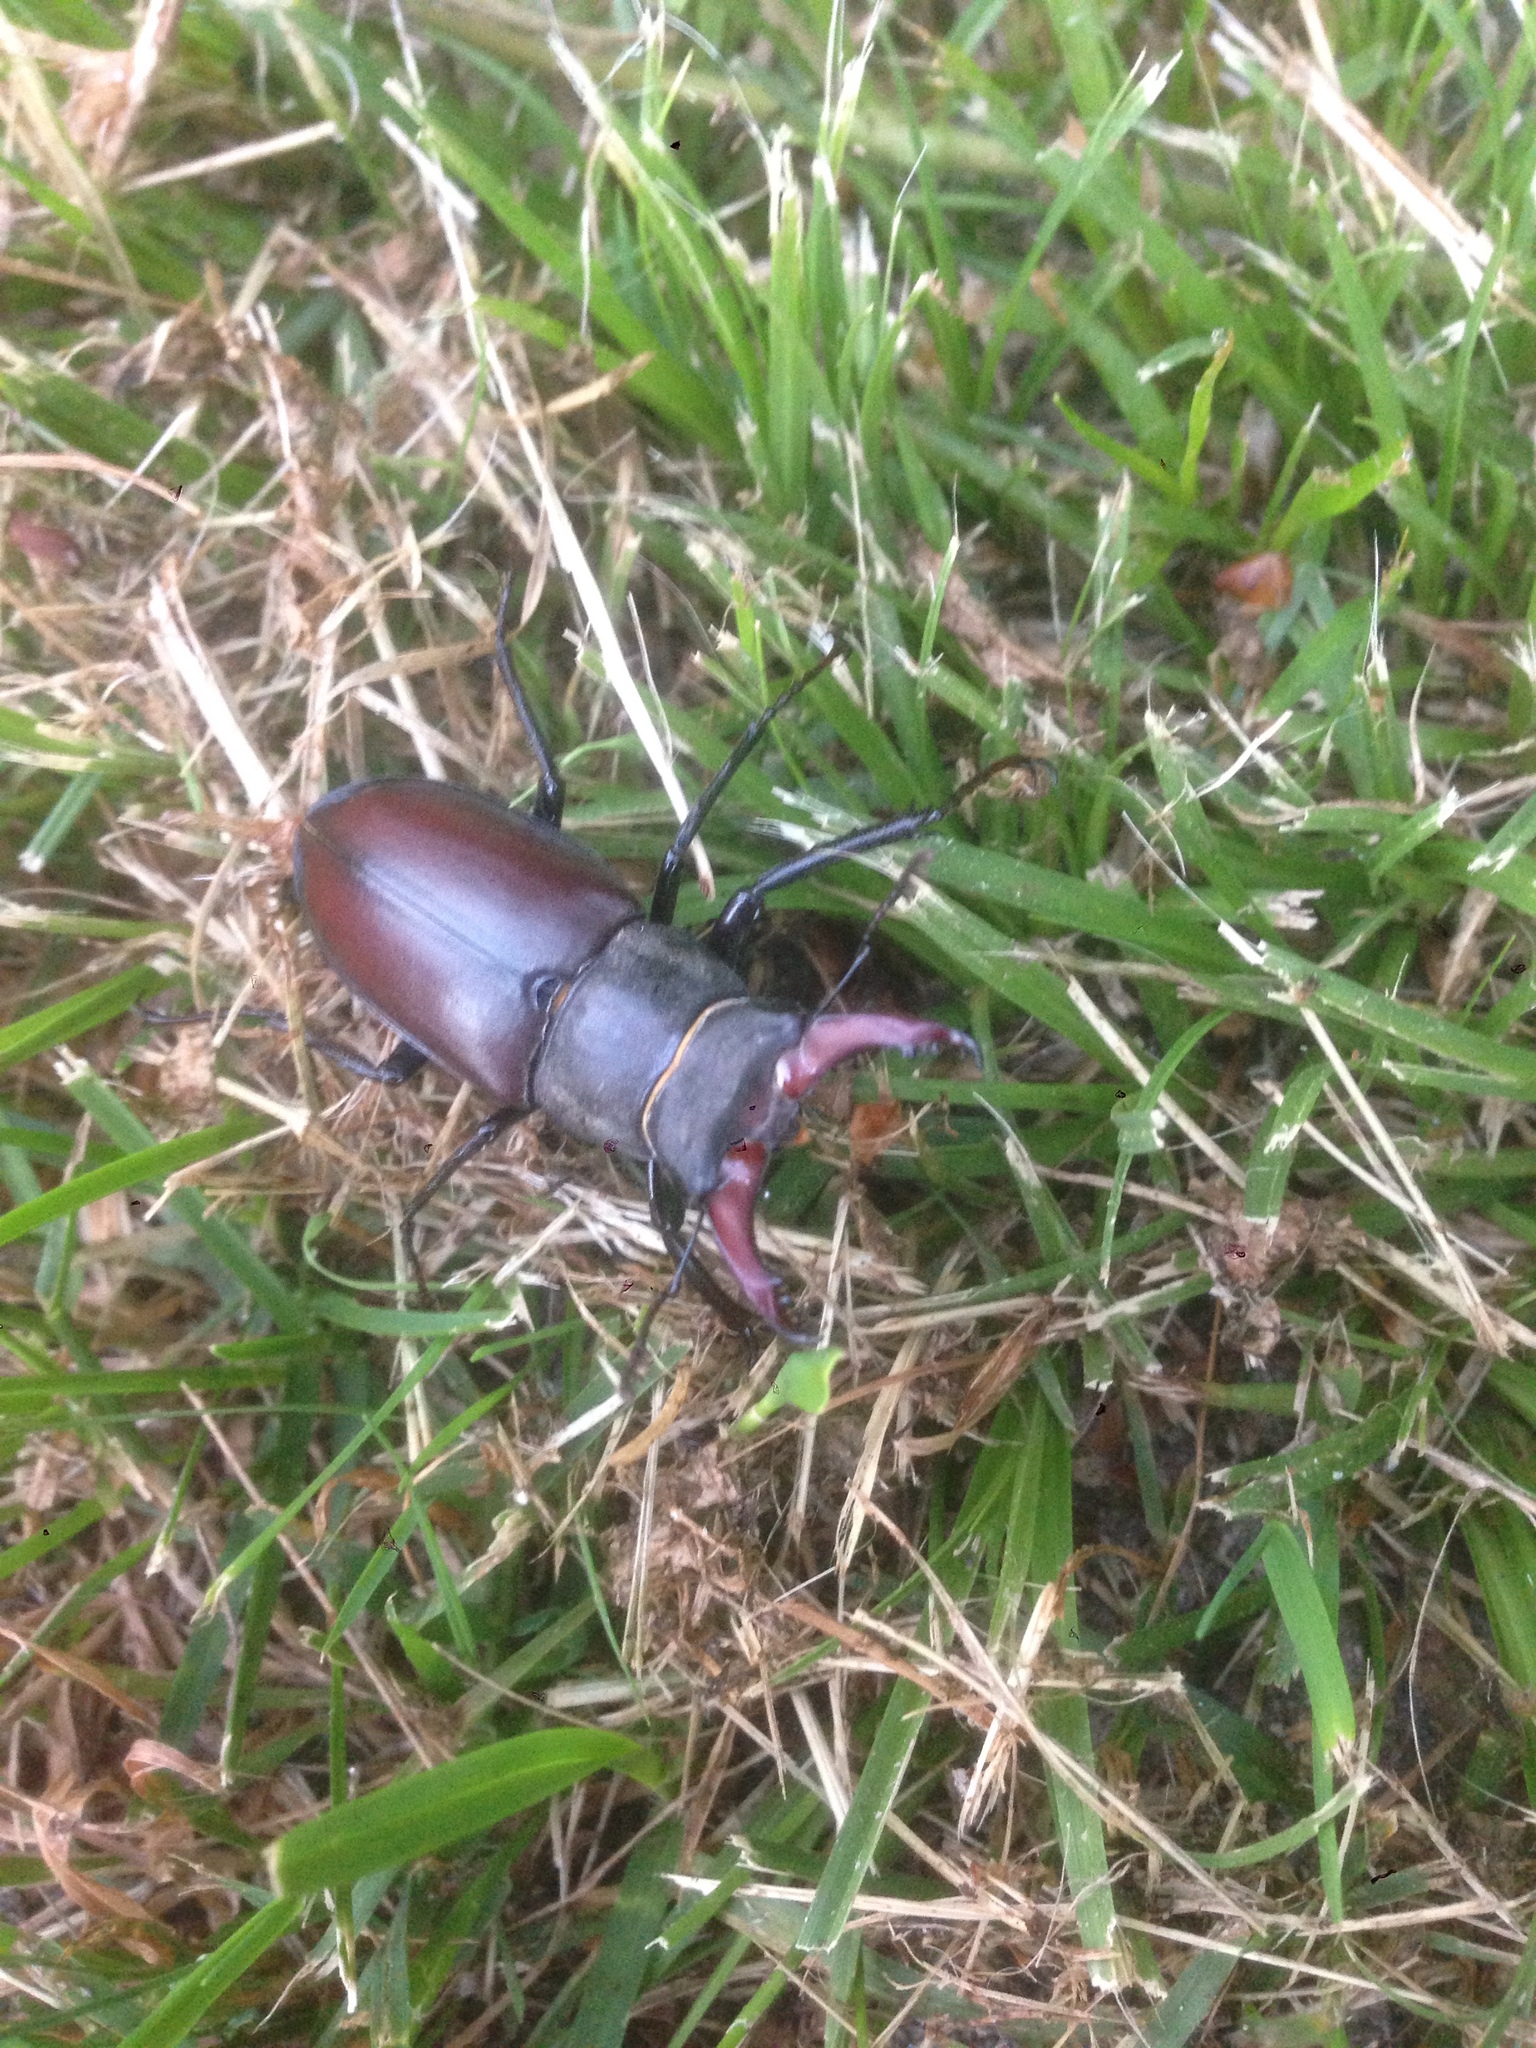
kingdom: Animalia
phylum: Arthropoda
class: Insecta
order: Coleoptera
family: Lucanidae
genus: Lucanus
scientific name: Lucanus cervus
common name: Stag beetle
